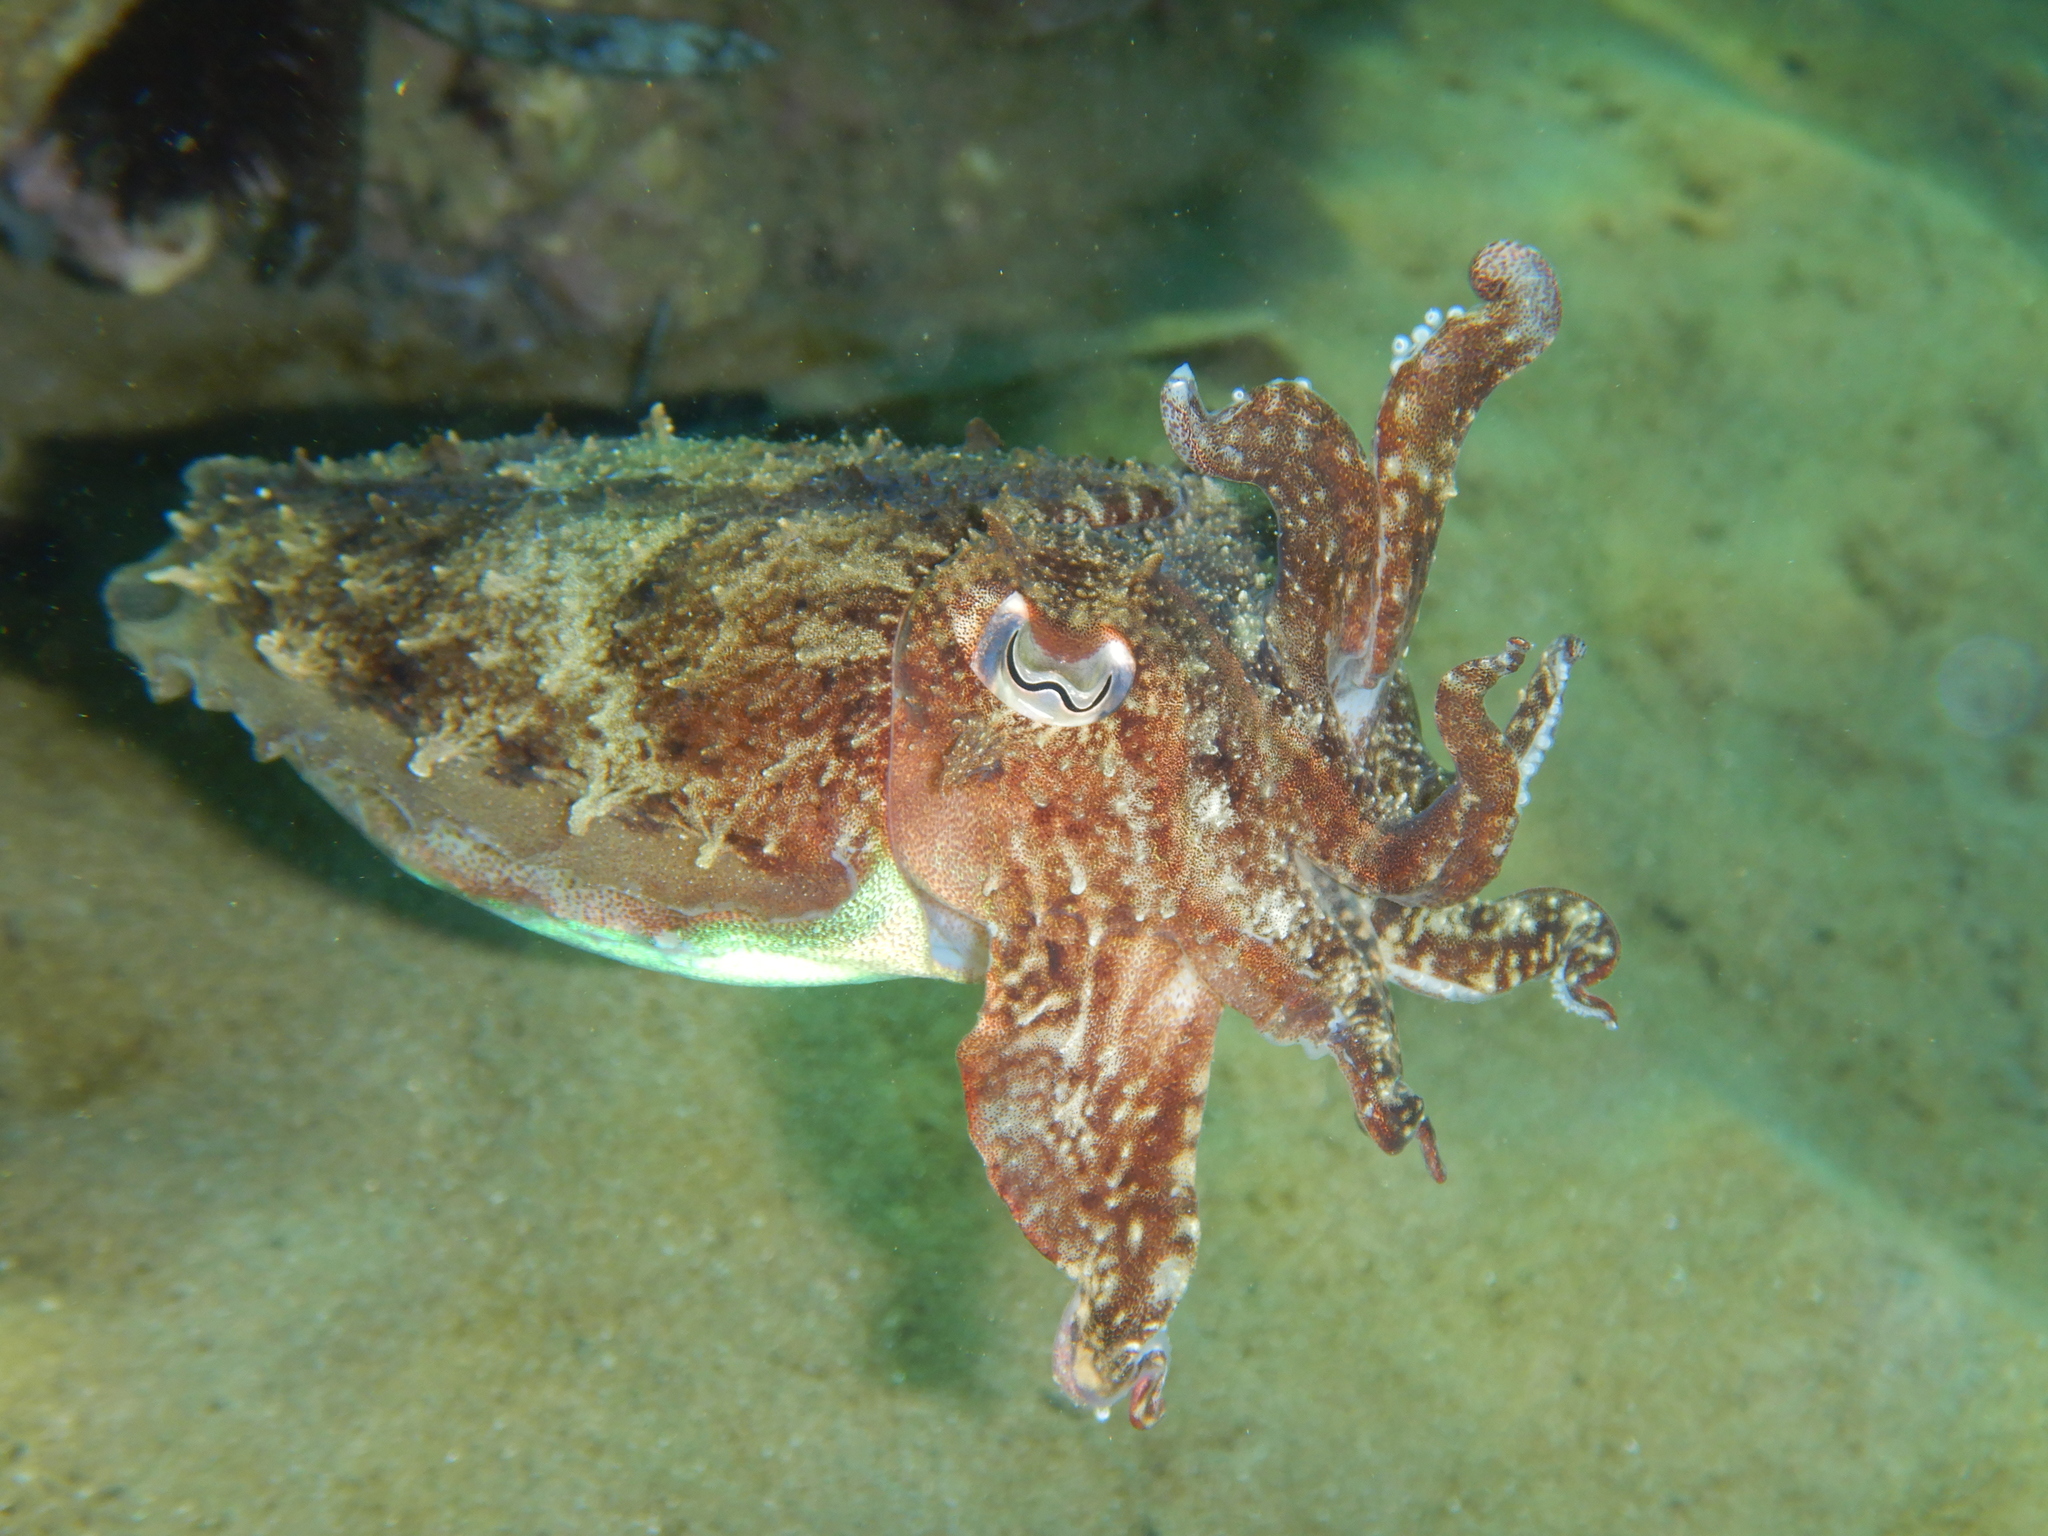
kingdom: Animalia
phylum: Mollusca
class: Cephalopoda
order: Sepiida
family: Sepiidae
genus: Sepia
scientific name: Sepia officinalis
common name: Common cuttlefish
